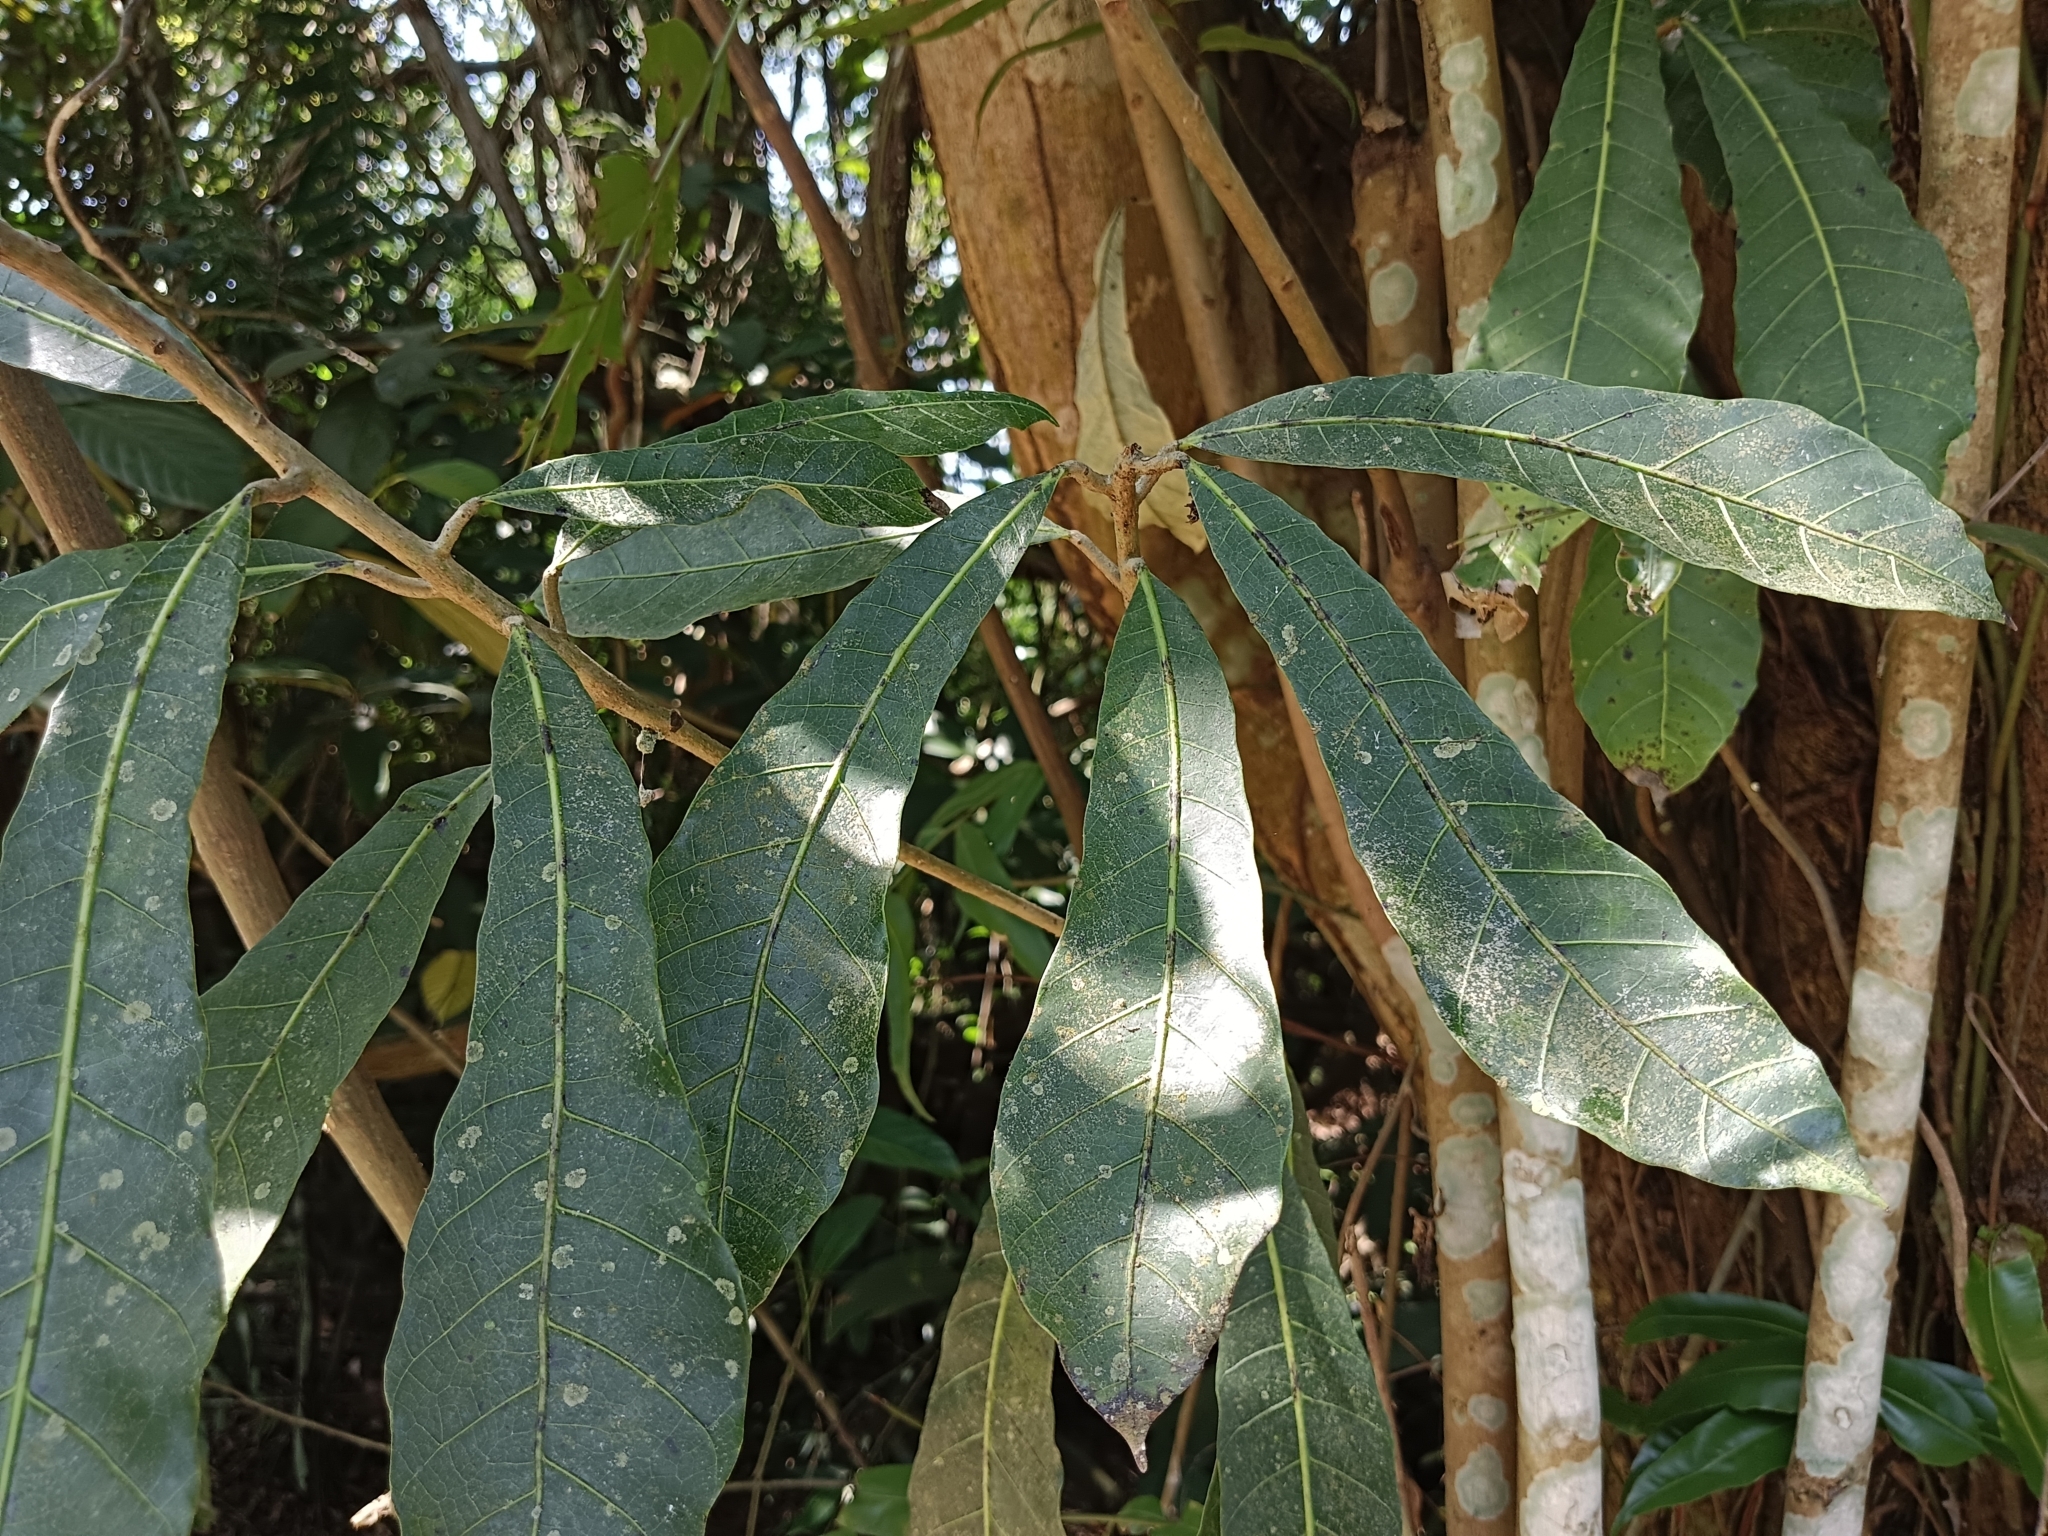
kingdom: Plantae
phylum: Tracheophyta
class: Magnoliopsida
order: Sapindales
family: Anacardiaceae
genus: Holigarna
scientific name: Holigarna arnottiana
